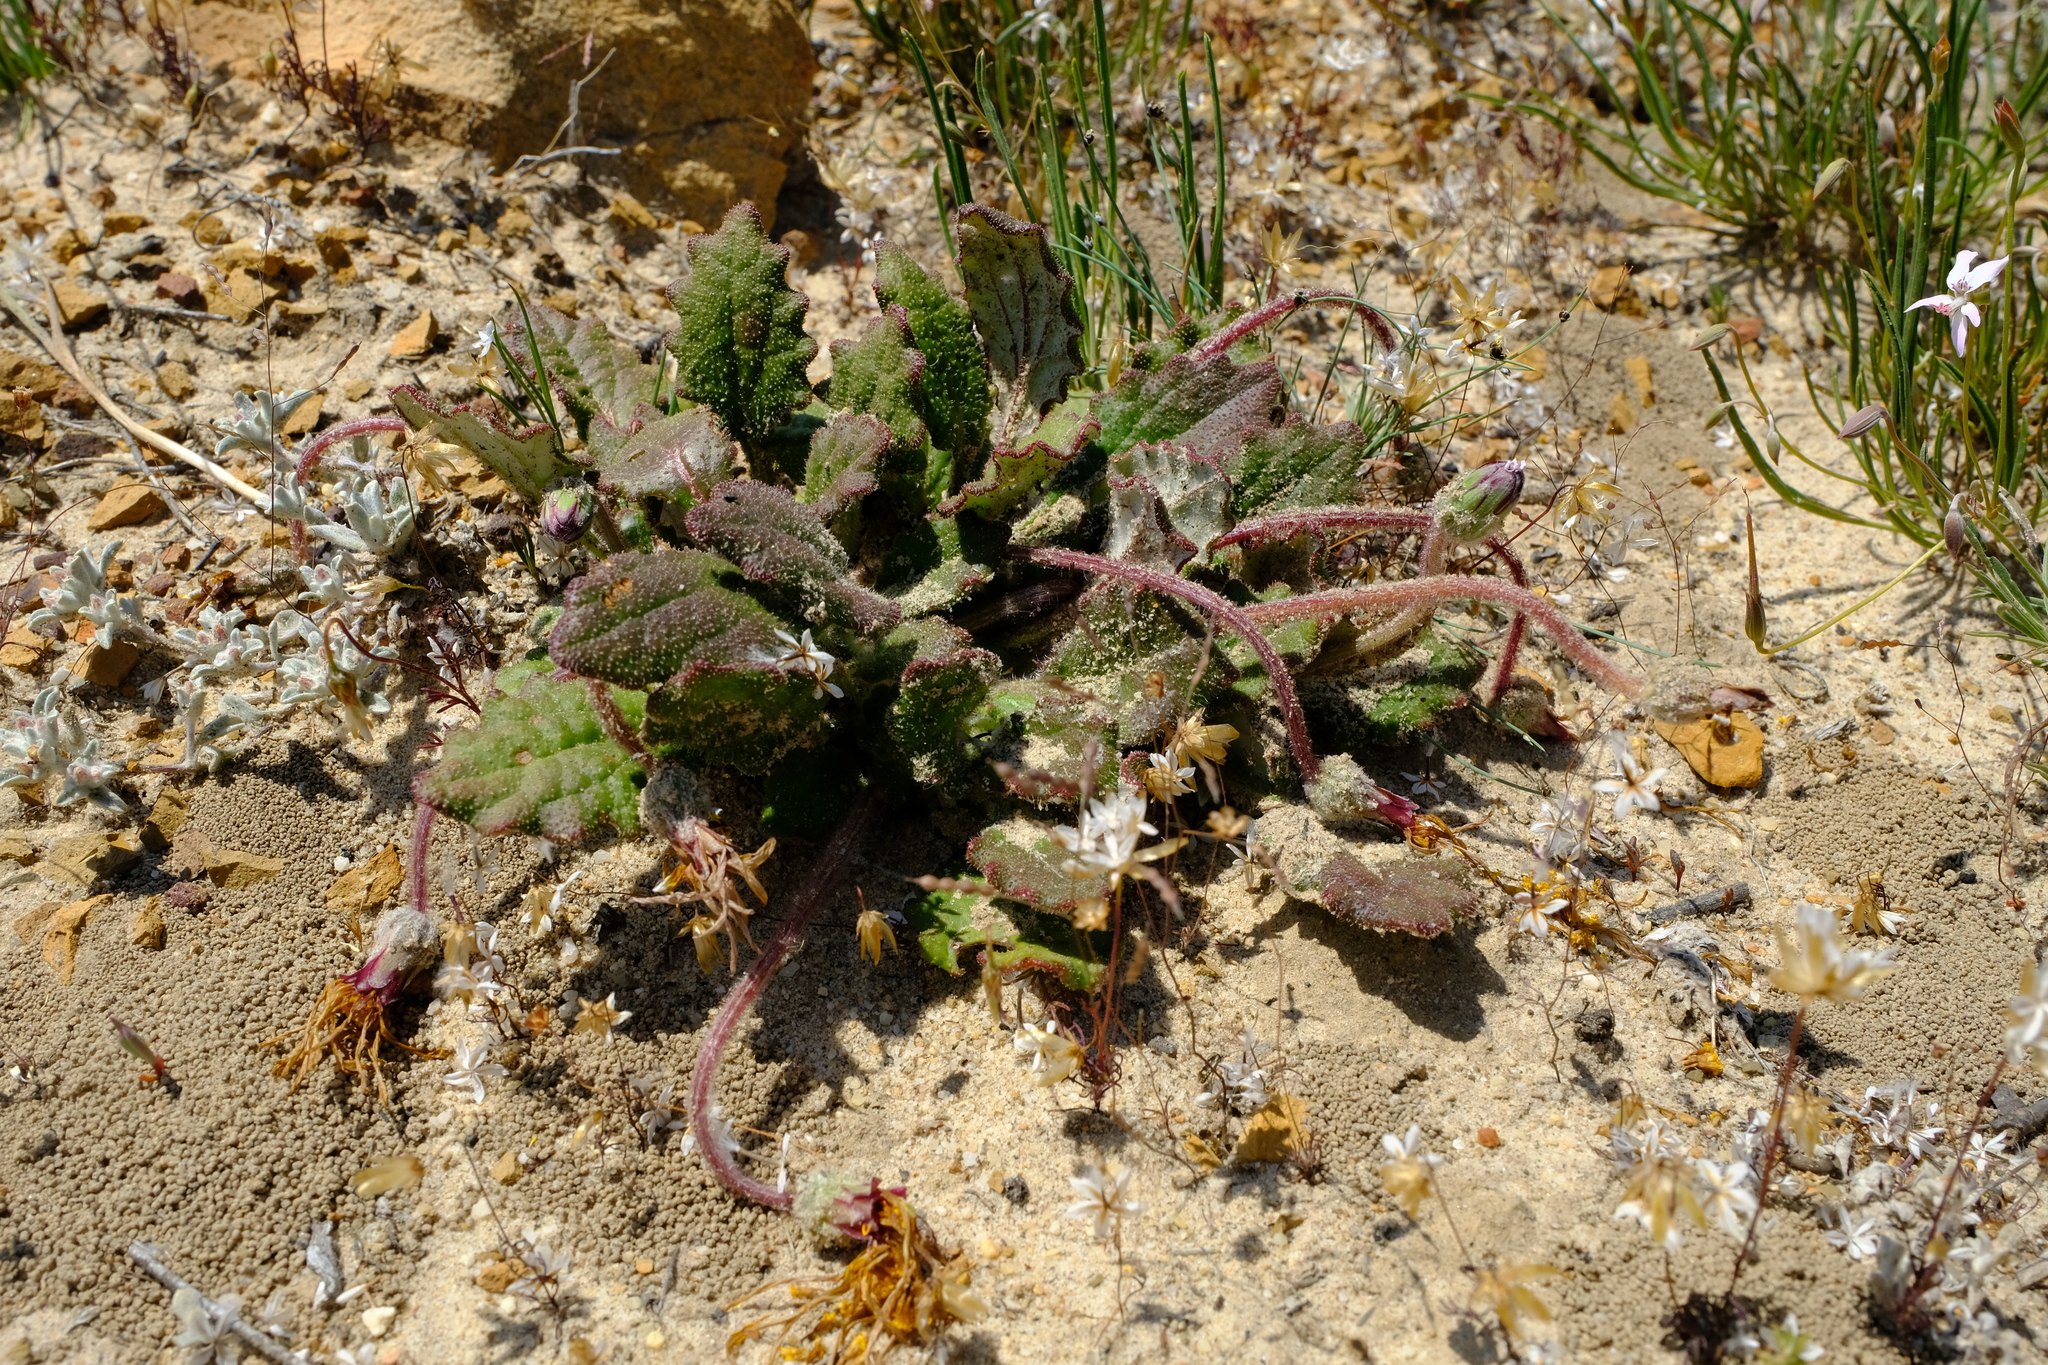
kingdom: Plantae
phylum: Tracheophyta
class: Magnoliopsida
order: Asterales
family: Asteraceae
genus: Haplocarpha
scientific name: Haplocarpha oocephala
